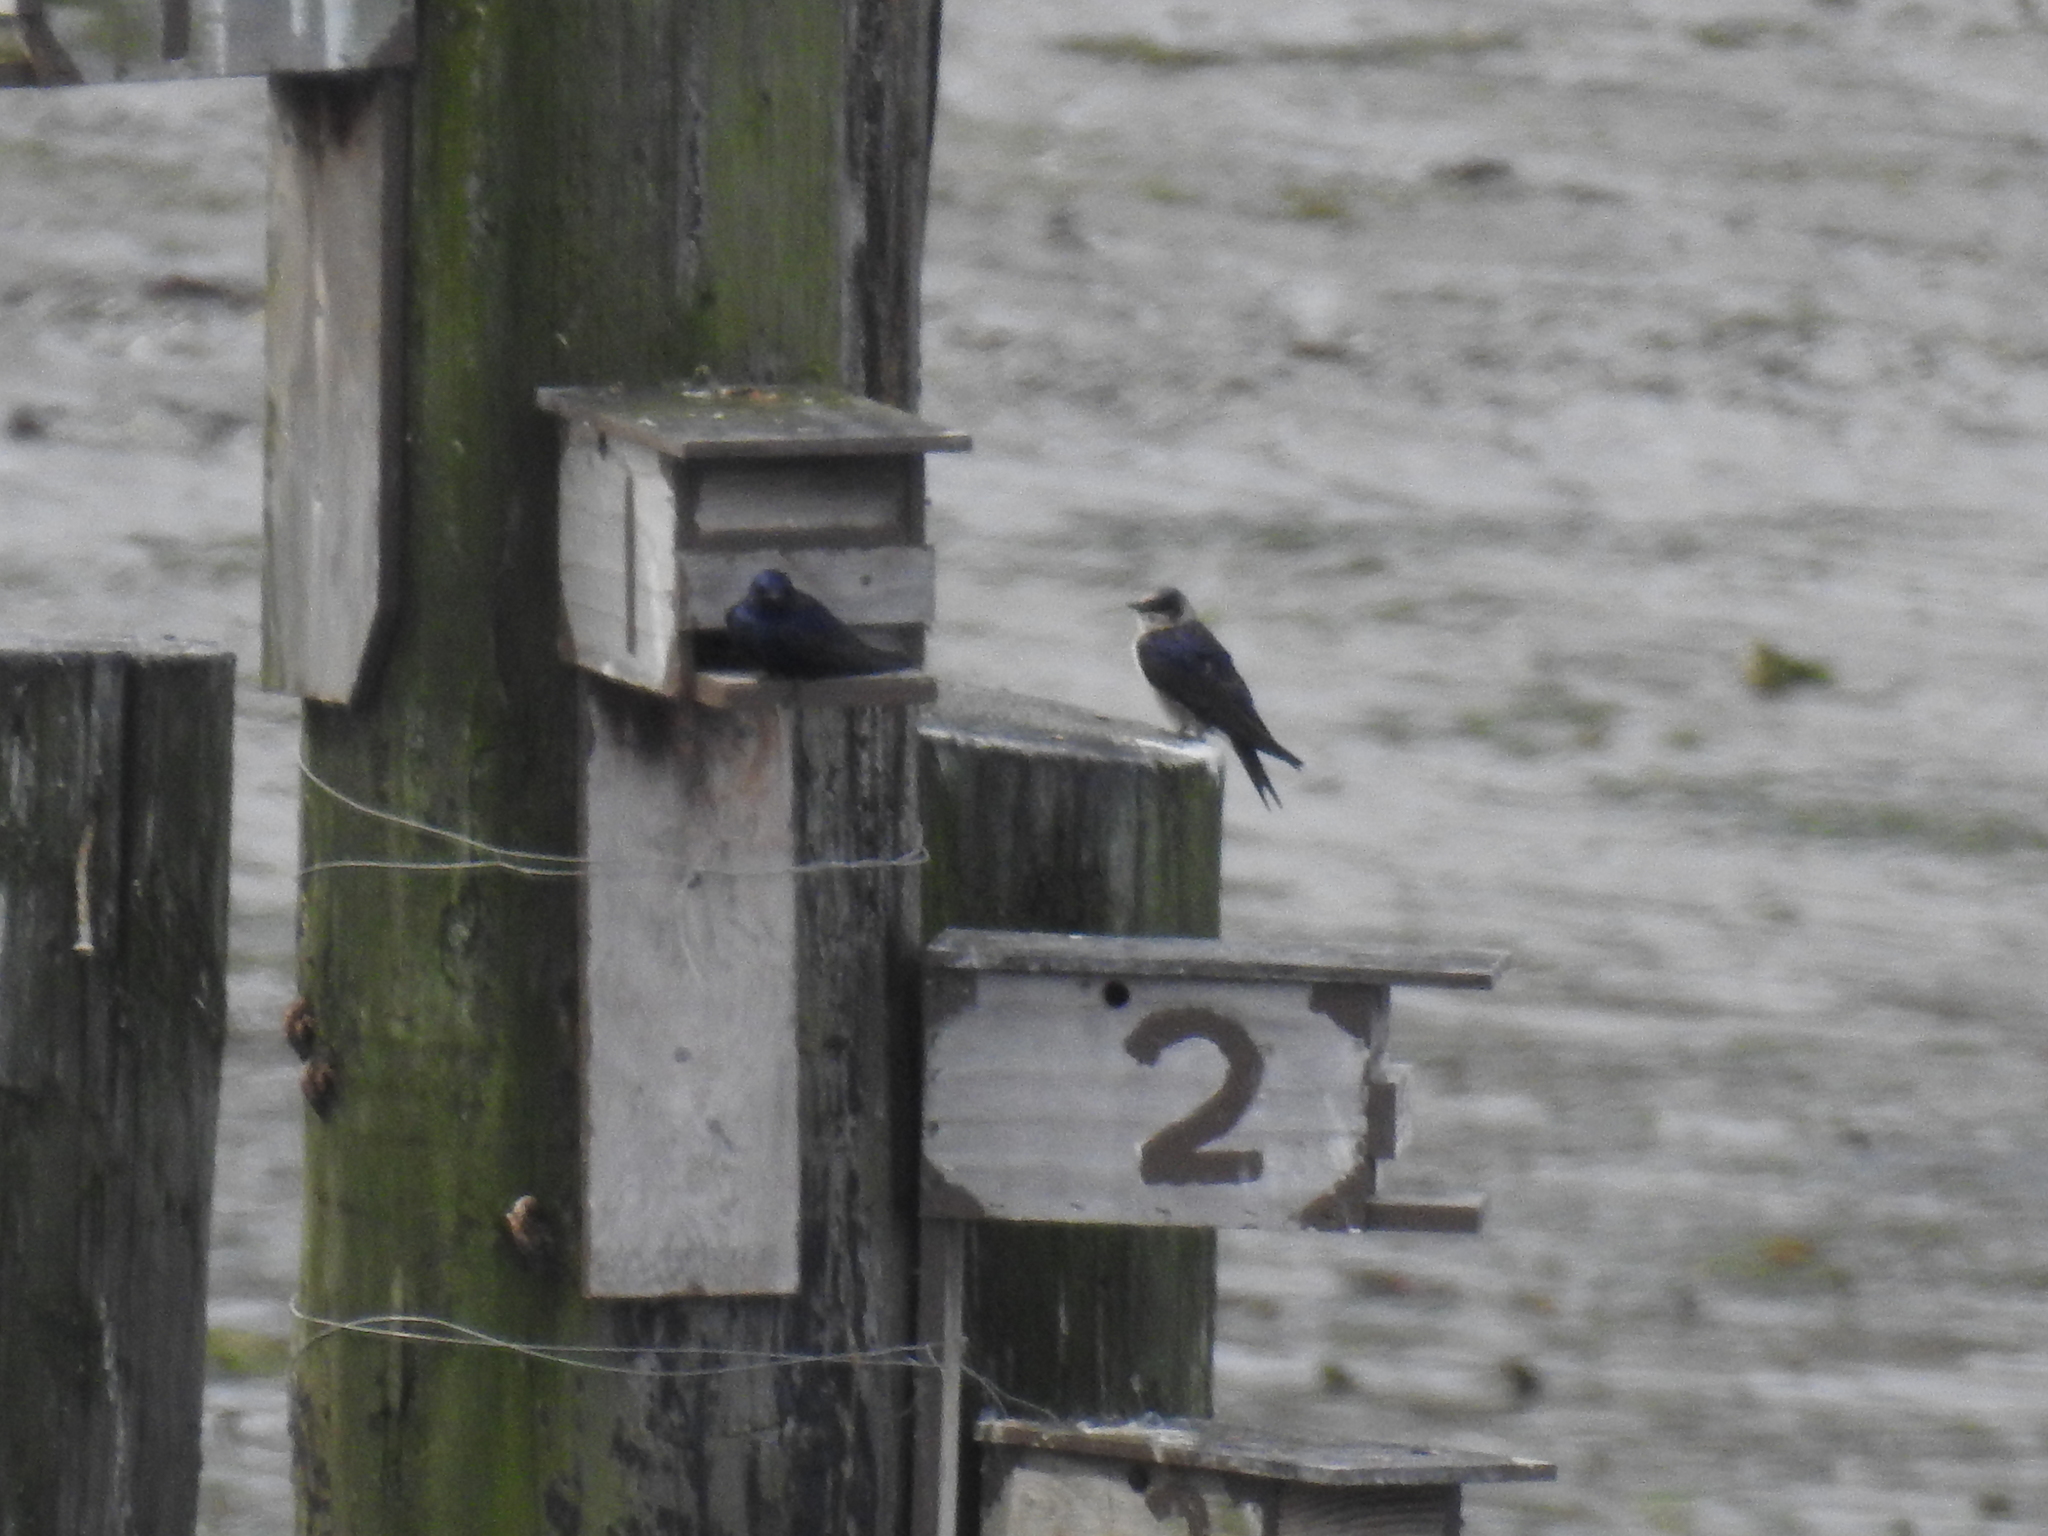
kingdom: Animalia
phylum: Chordata
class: Aves
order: Passeriformes
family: Hirundinidae
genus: Progne
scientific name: Progne subis
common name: Purple martin
